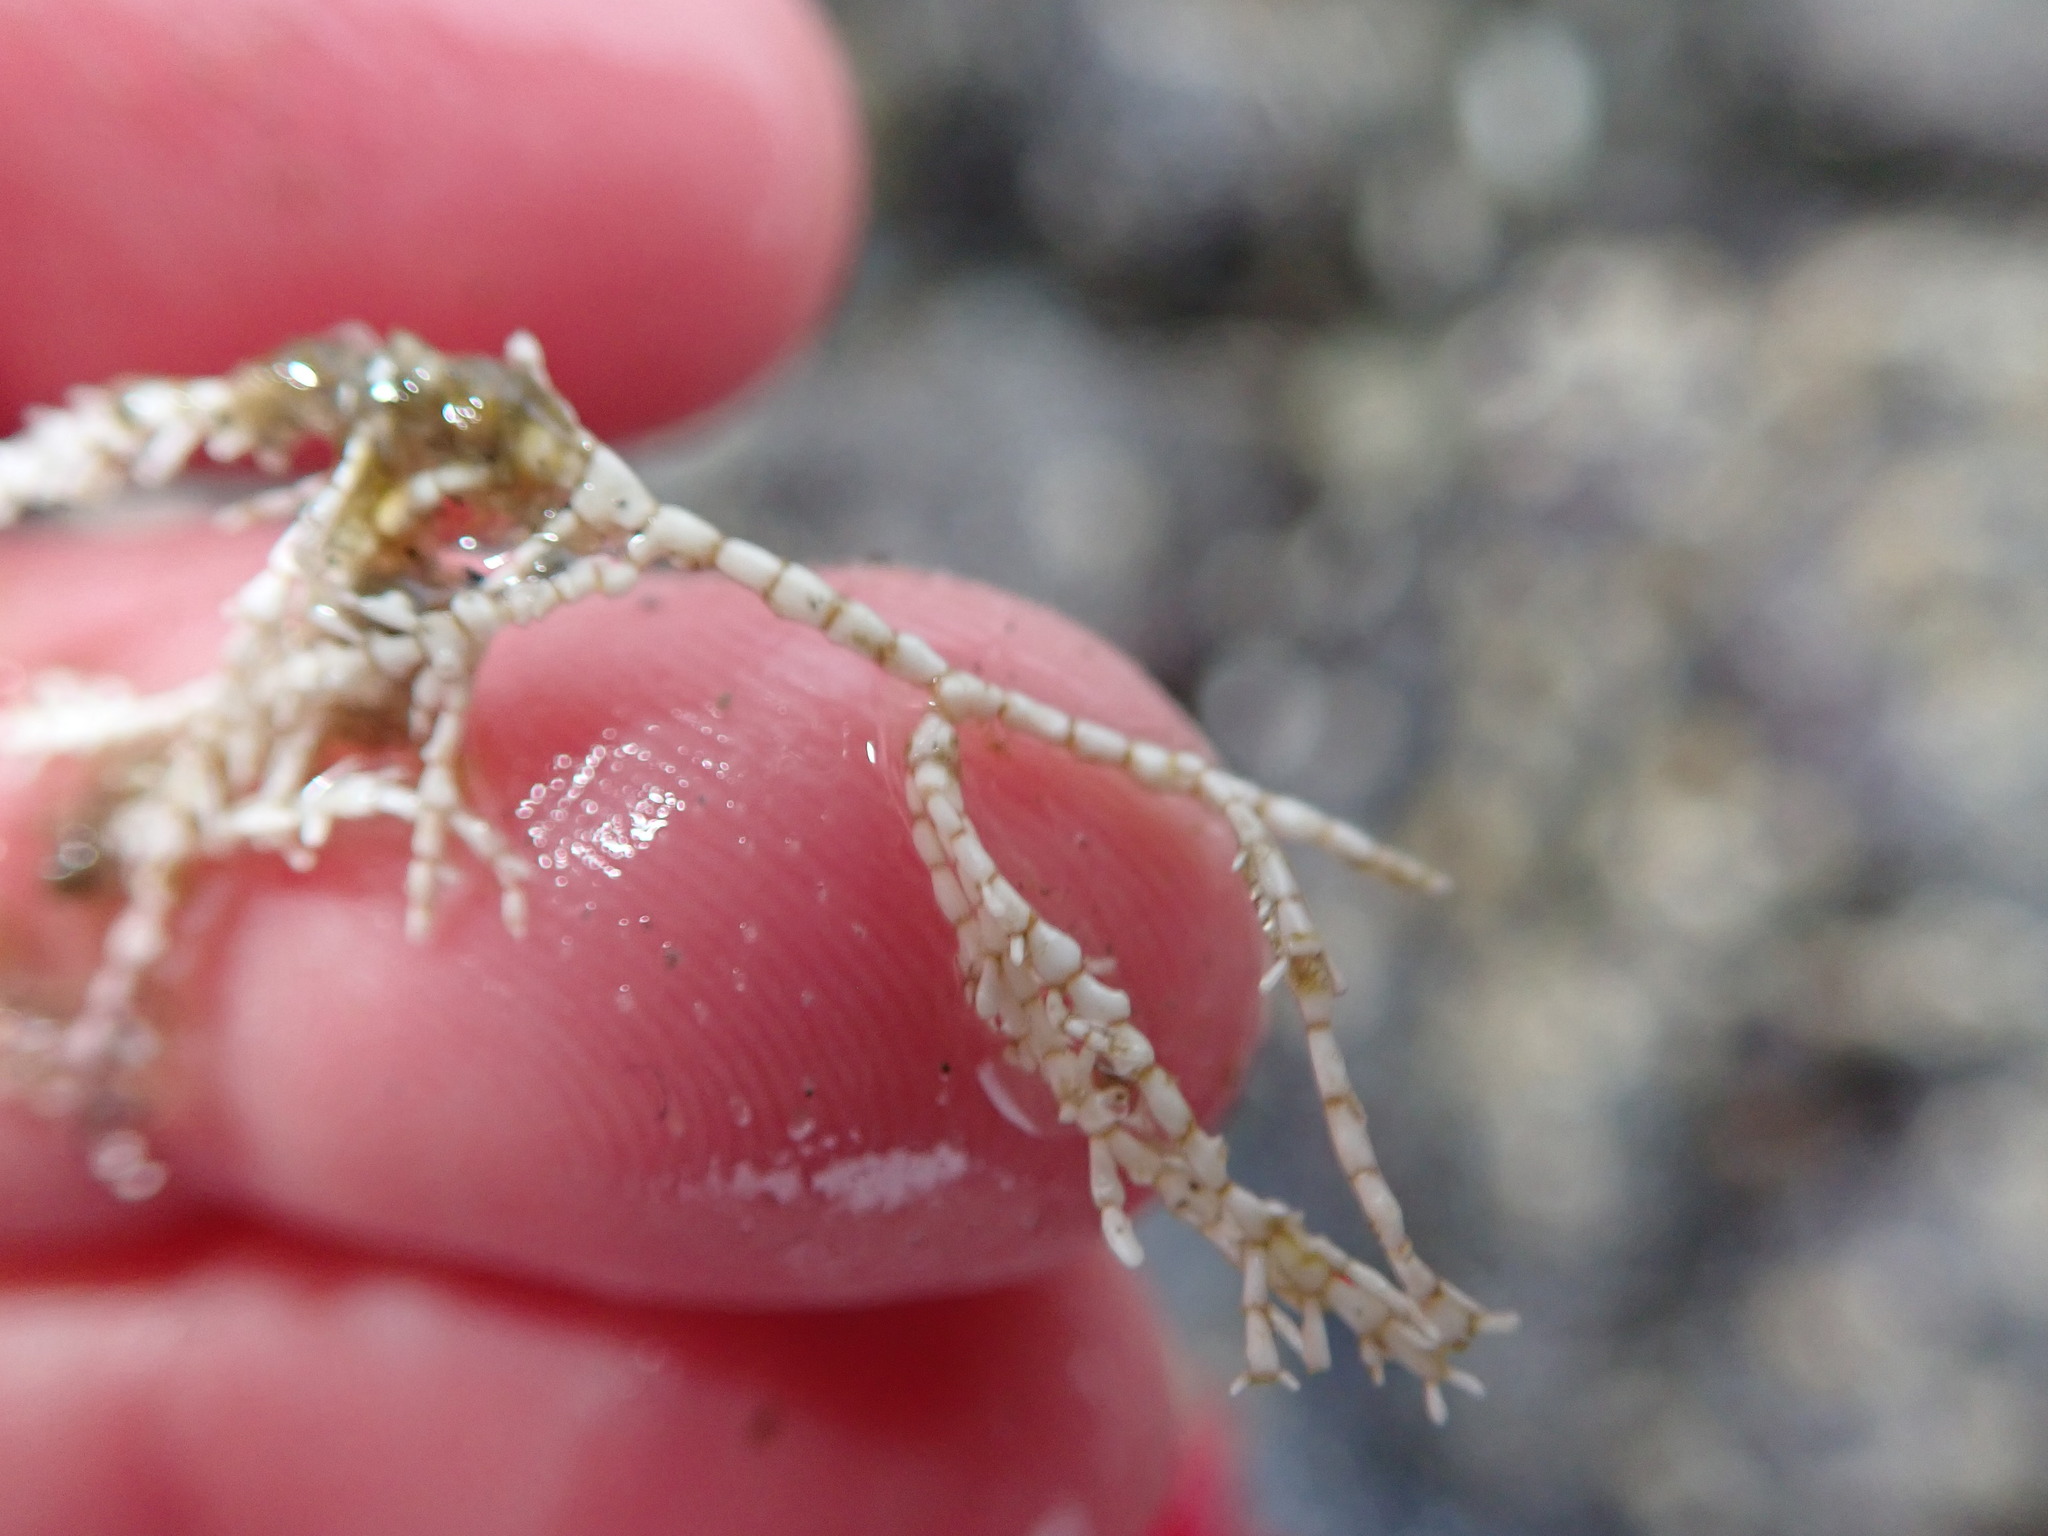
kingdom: Plantae
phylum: Rhodophyta
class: Florideophyceae
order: Corallinales
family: Corallinaceae
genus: Corallina
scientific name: Corallina officinalis
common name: Coral weed
